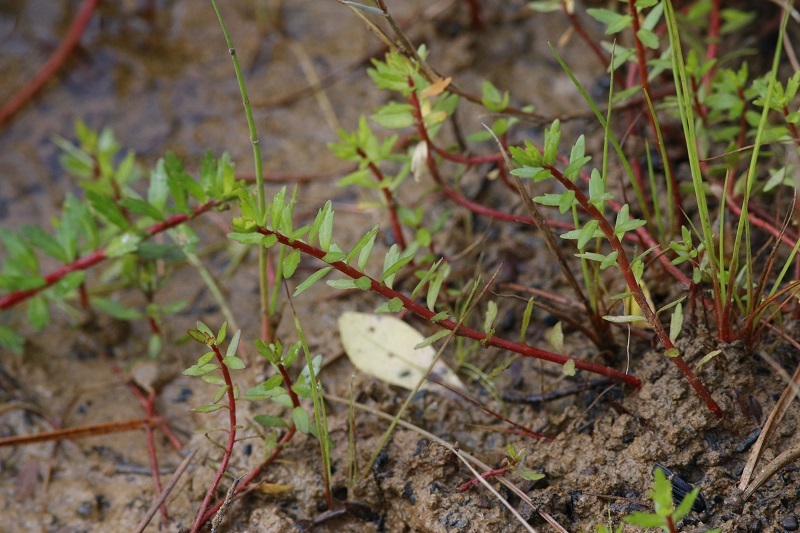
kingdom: Plantae
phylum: Tracheophyta
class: Magnoliopsida
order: Saxifragales
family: Haloragaceae
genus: Laurembergia
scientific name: Laurembergia repens
